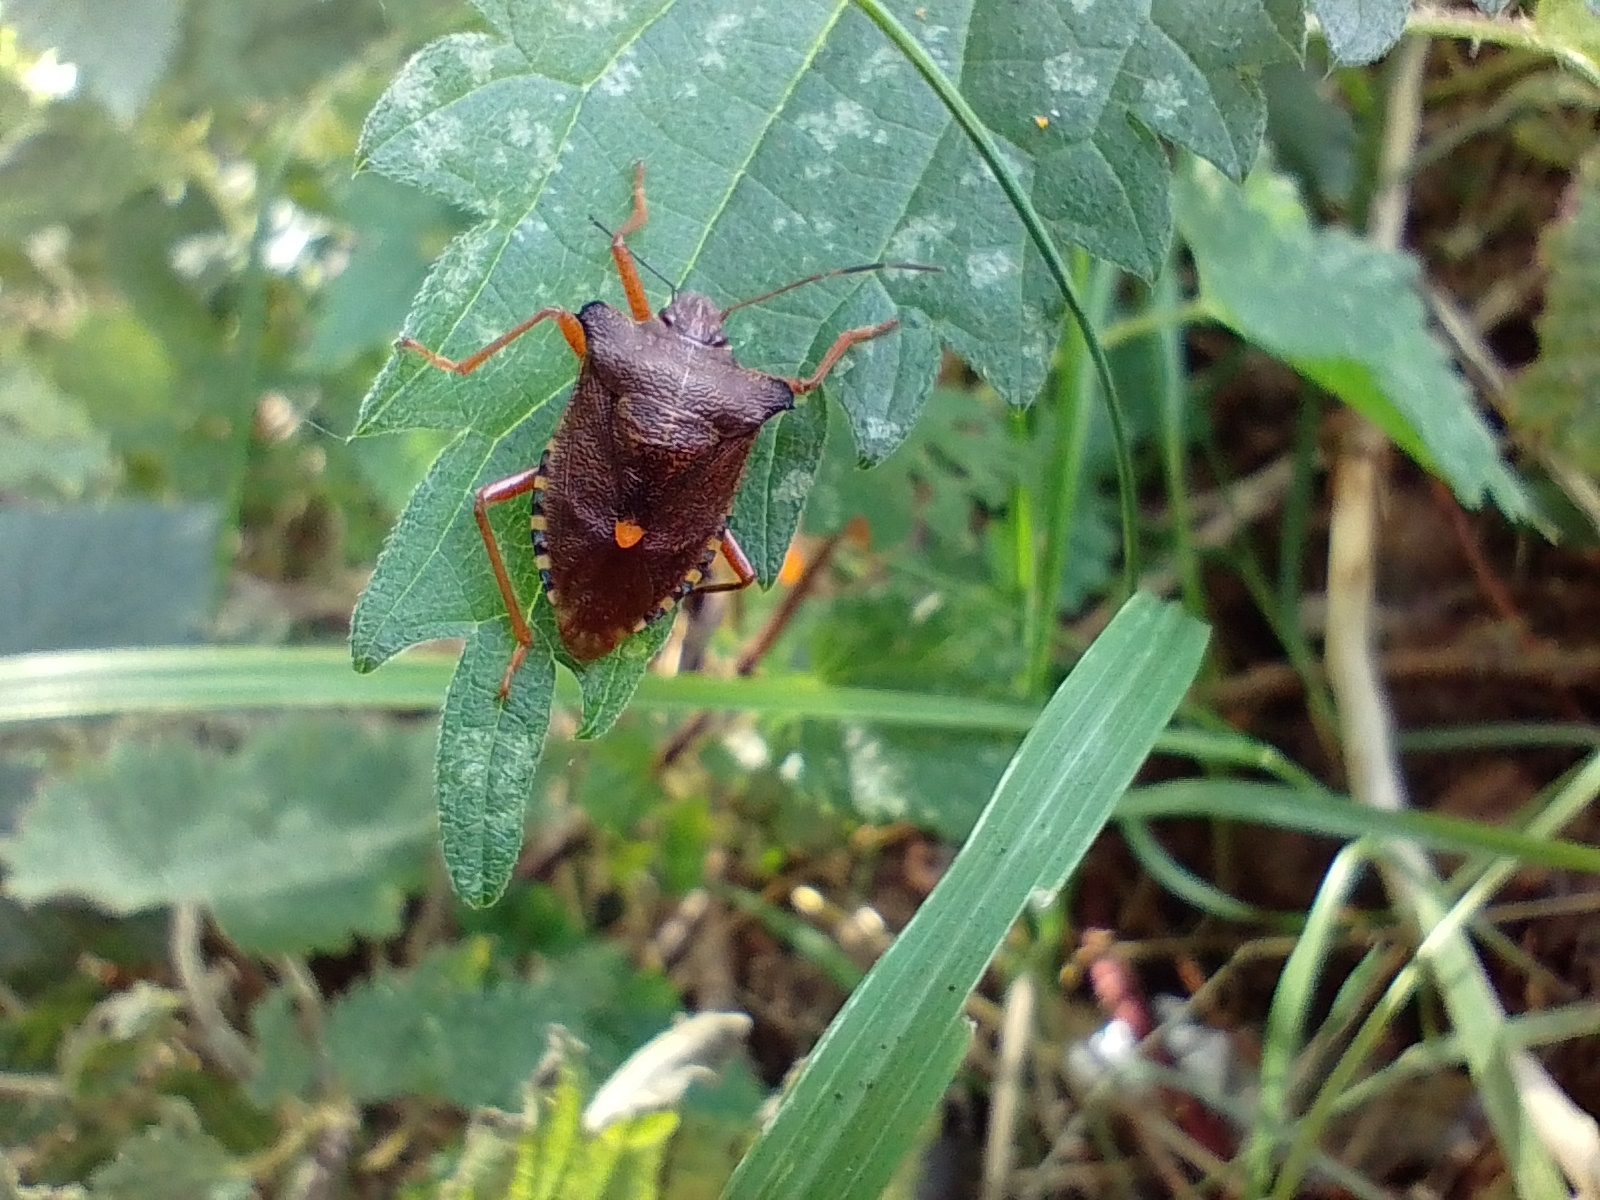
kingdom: Animalia
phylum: Arthropoda
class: Insecta
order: Hemiptera
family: Pentatomidae
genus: Pentatoma
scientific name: Pentatoma rufipes
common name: Forest bug
